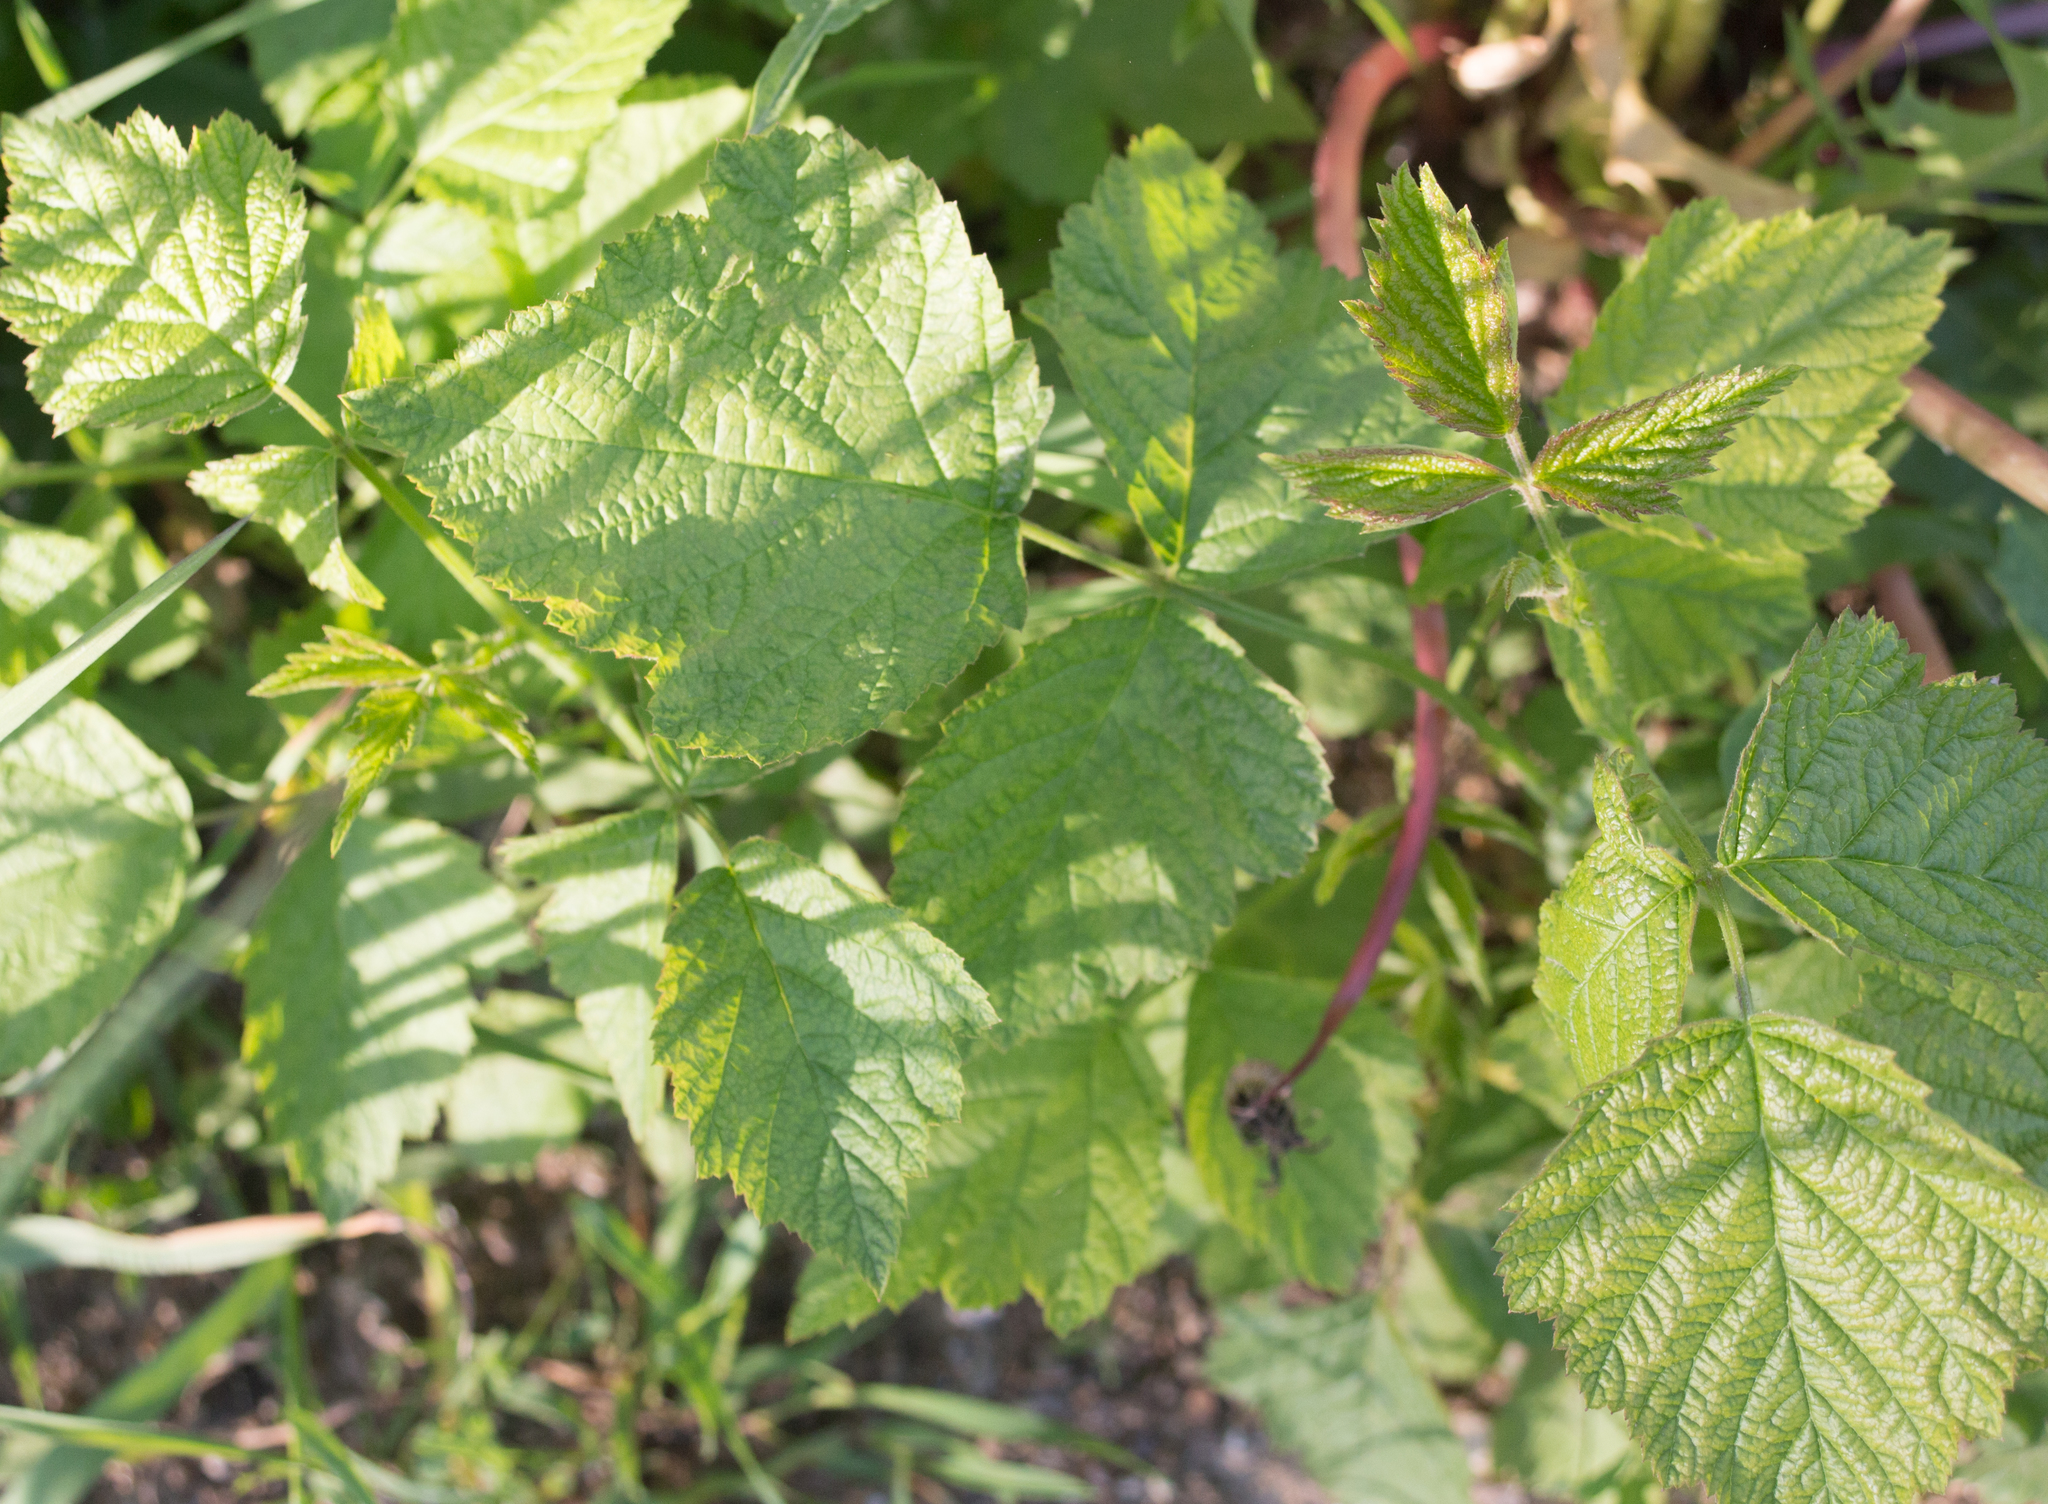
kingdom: Plantae
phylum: Tracheophyta
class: Magnoliopsida
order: Rosales
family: Rosaceae
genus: Rubus
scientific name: Rubus caesius
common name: Dewberry
